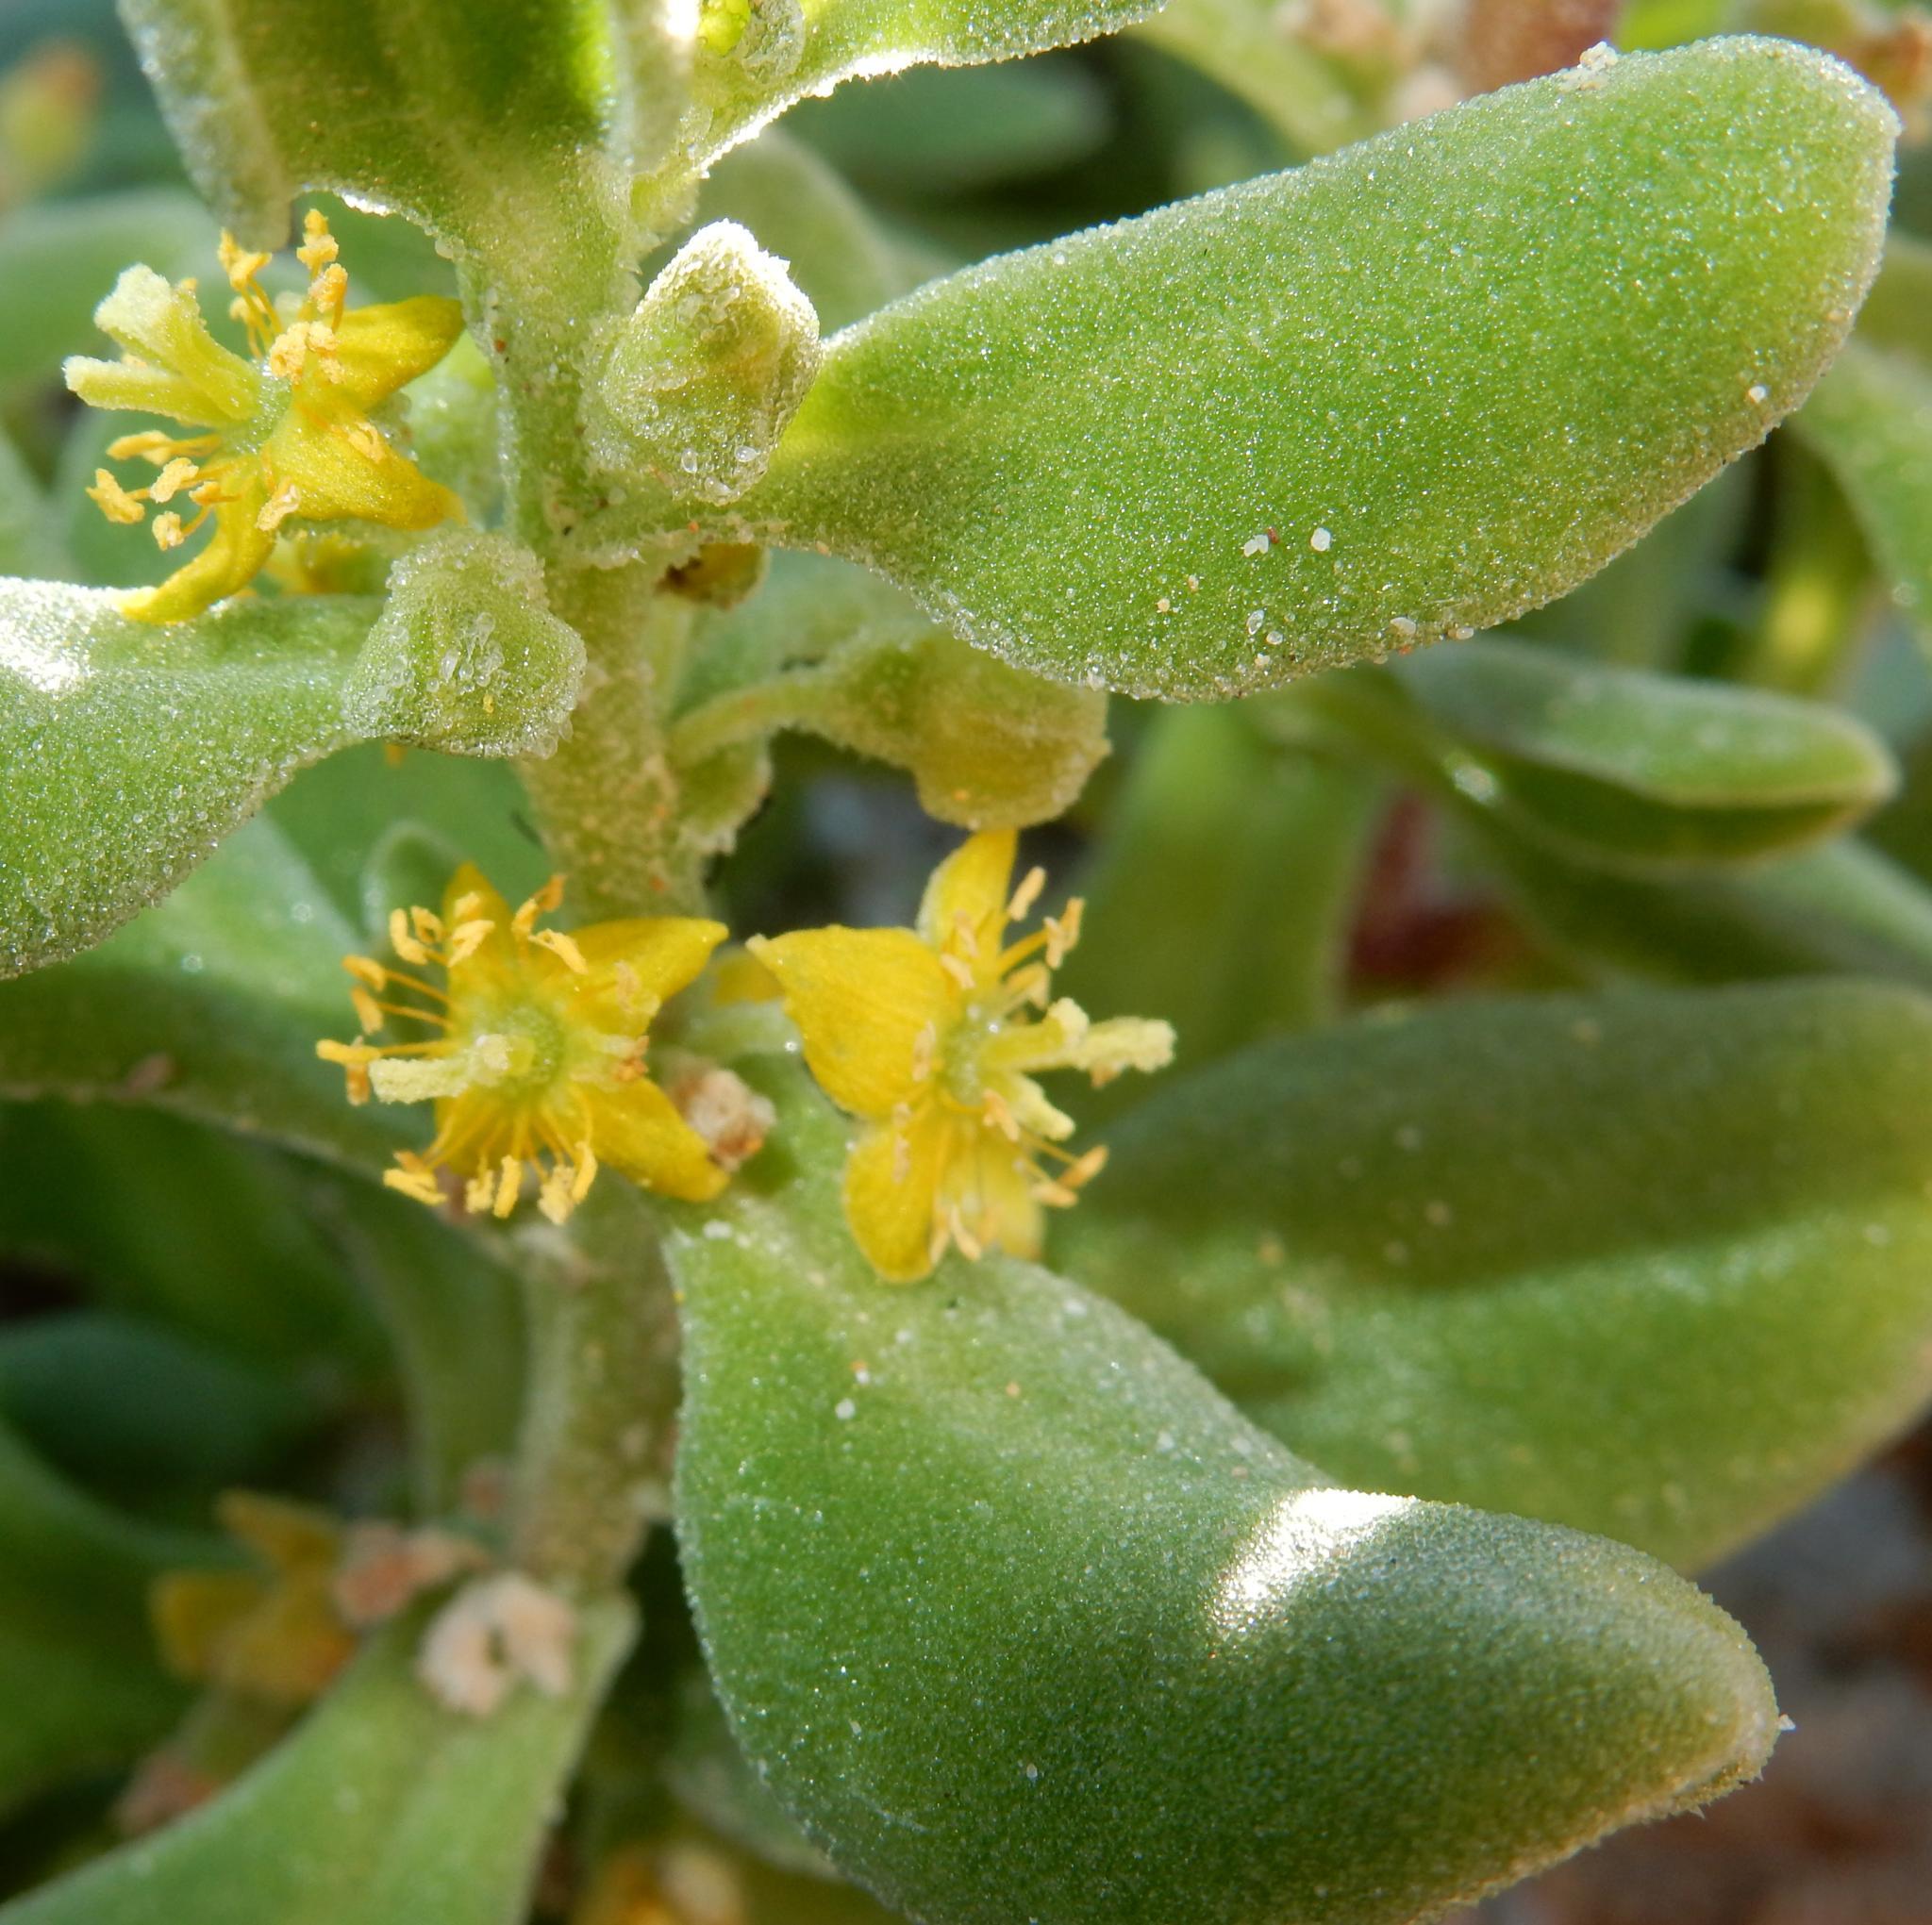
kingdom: Plantae
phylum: Tracheophyta
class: Magnoliopsida
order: Caryophyllales
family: Aizoaceae
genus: Tetragonia
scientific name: Tetragonia decumbens
